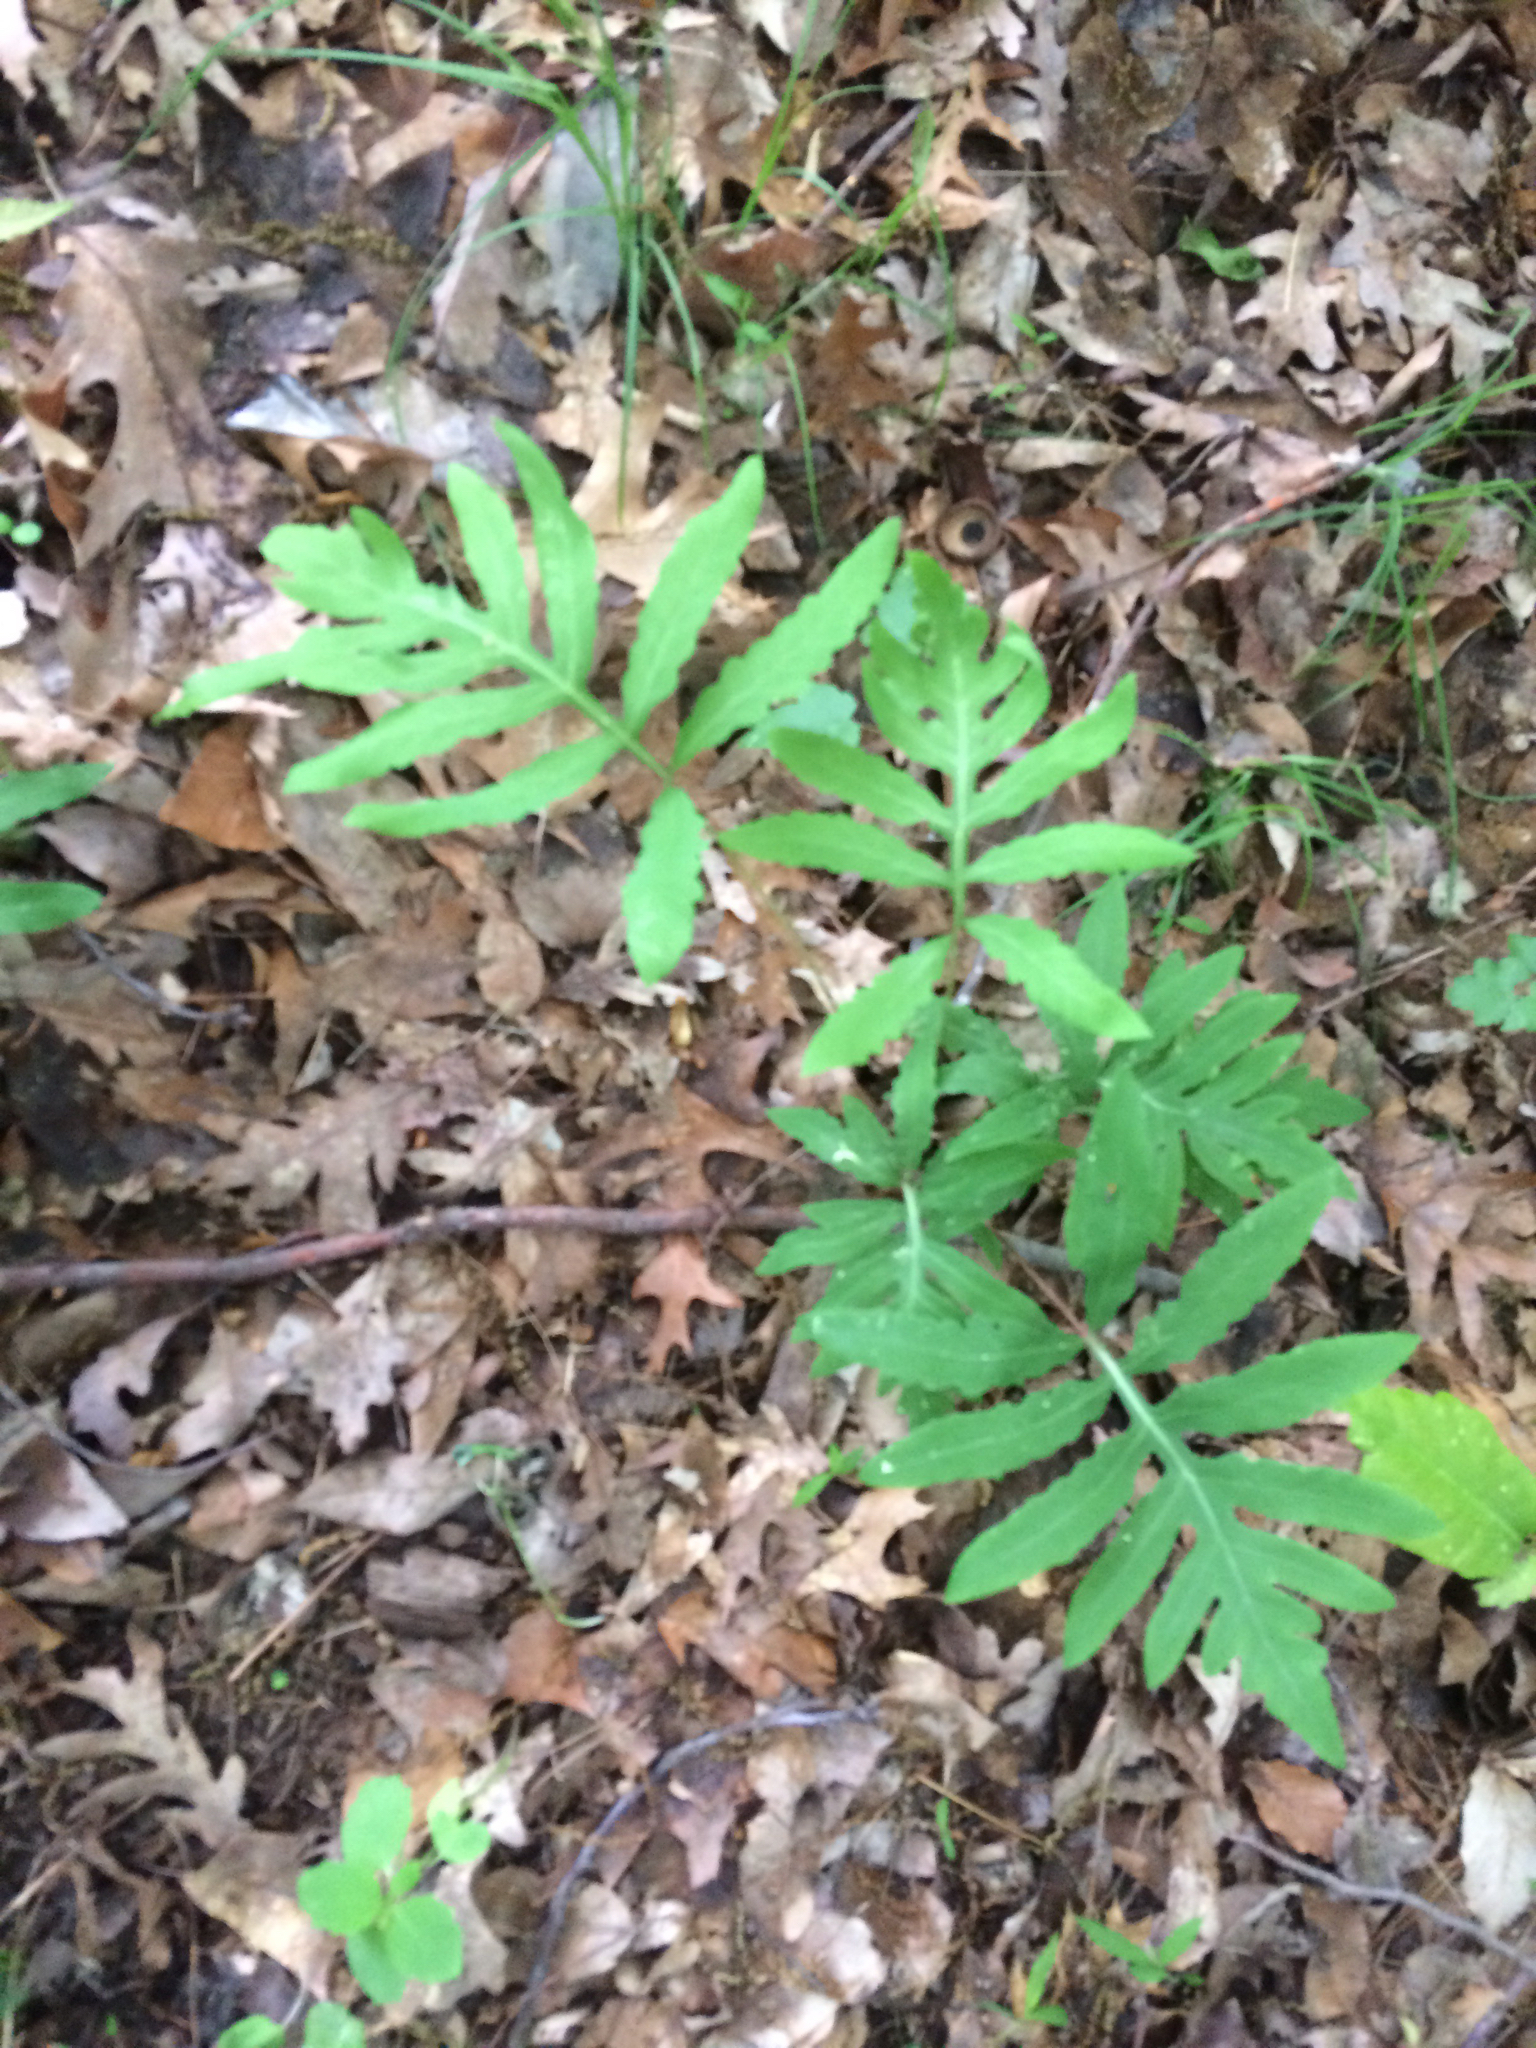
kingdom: Plantae
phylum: Tracheophyta
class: Polypodiopsida
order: Polypodiales
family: Onocleaceae
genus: Onoclea
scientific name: Onoclea sensibilis
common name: Sensitive fern
